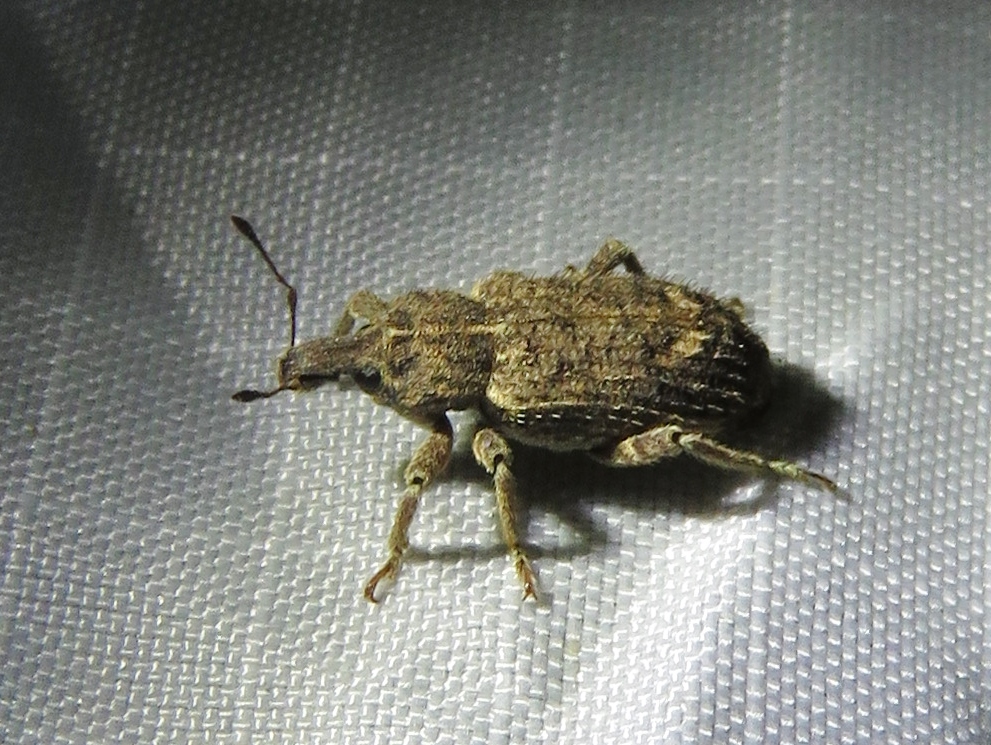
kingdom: Animalia
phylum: Arthropoda
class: Insecta
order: Coleoptera
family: Curculionidae
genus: Listroderes
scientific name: Listroderes difficilis
